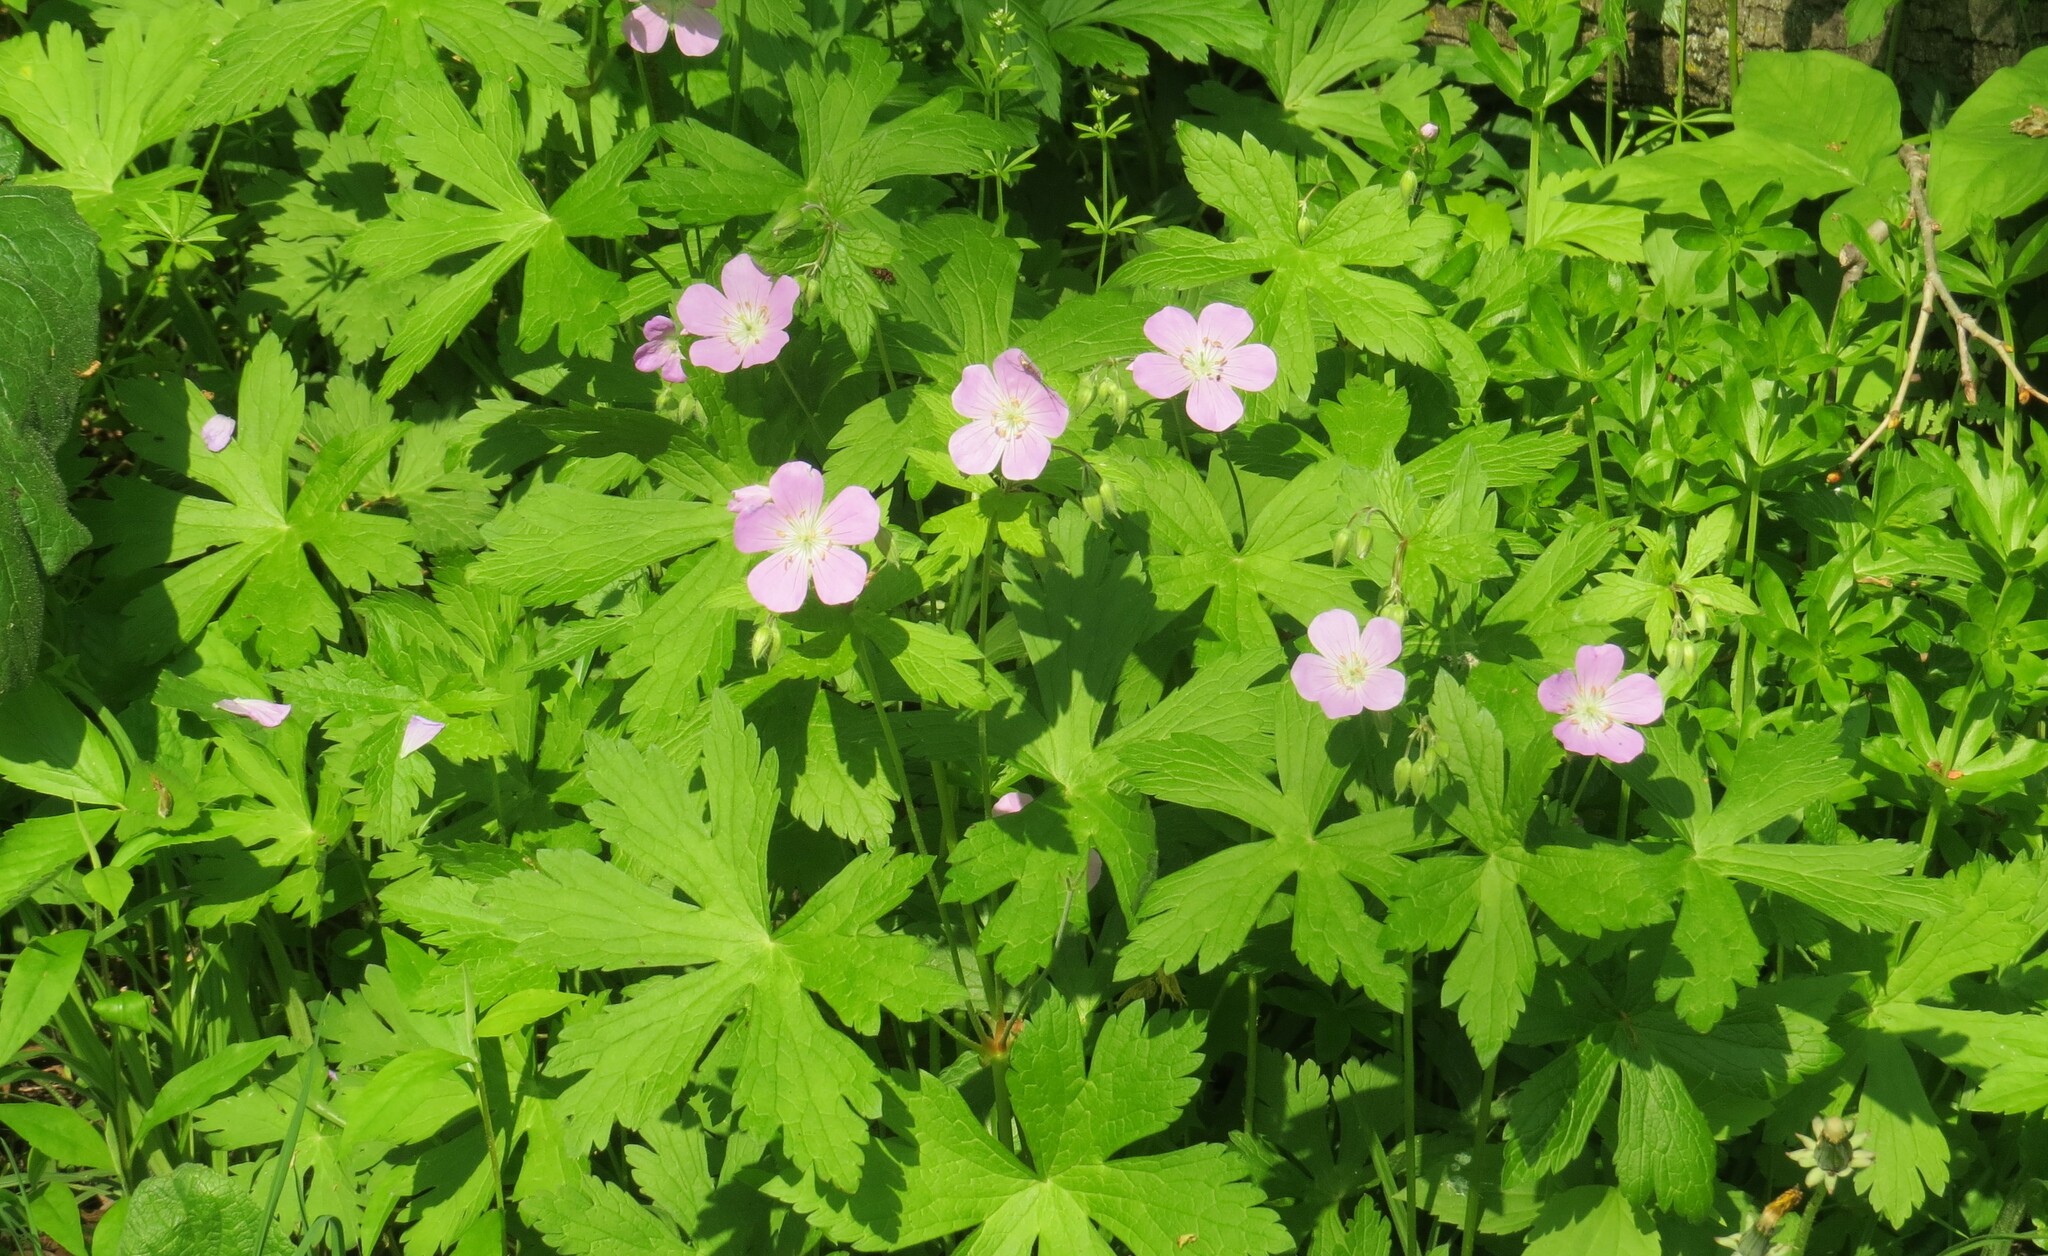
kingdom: Plantae
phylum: Tracheophyta
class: Magnoliopsida
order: Geraniales
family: Geraniaceae
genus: Geranium
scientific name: Geranium maculatum
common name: Spotted geranium
